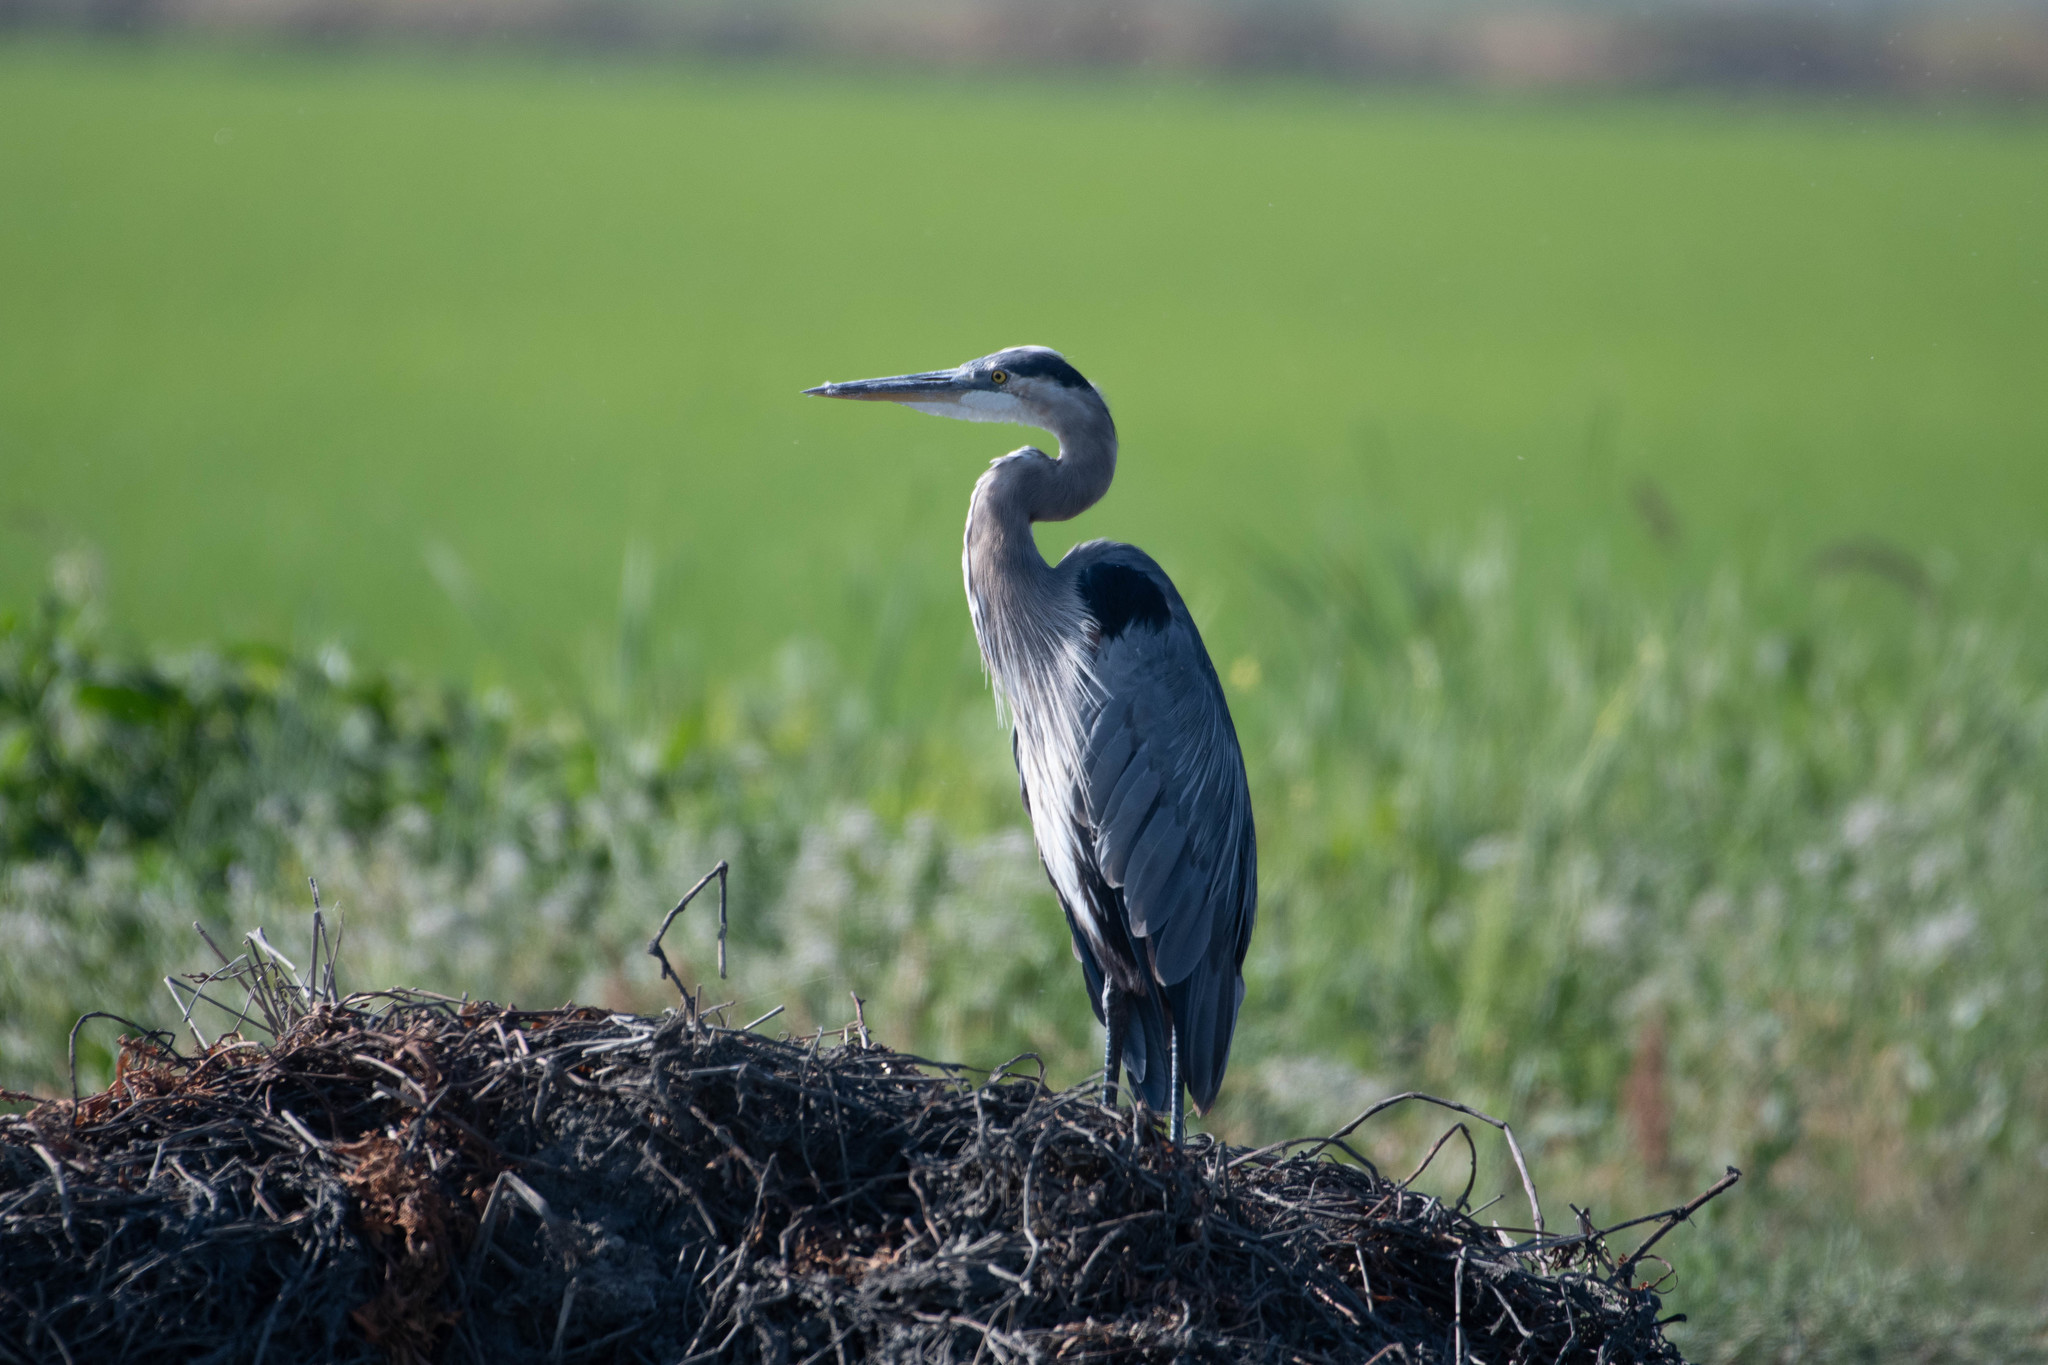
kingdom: Animalia
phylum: Chordata
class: Aves
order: Pelecaniformes
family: Ardeidae
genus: Ardea
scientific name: Ardea herodias
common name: Great blue heron
